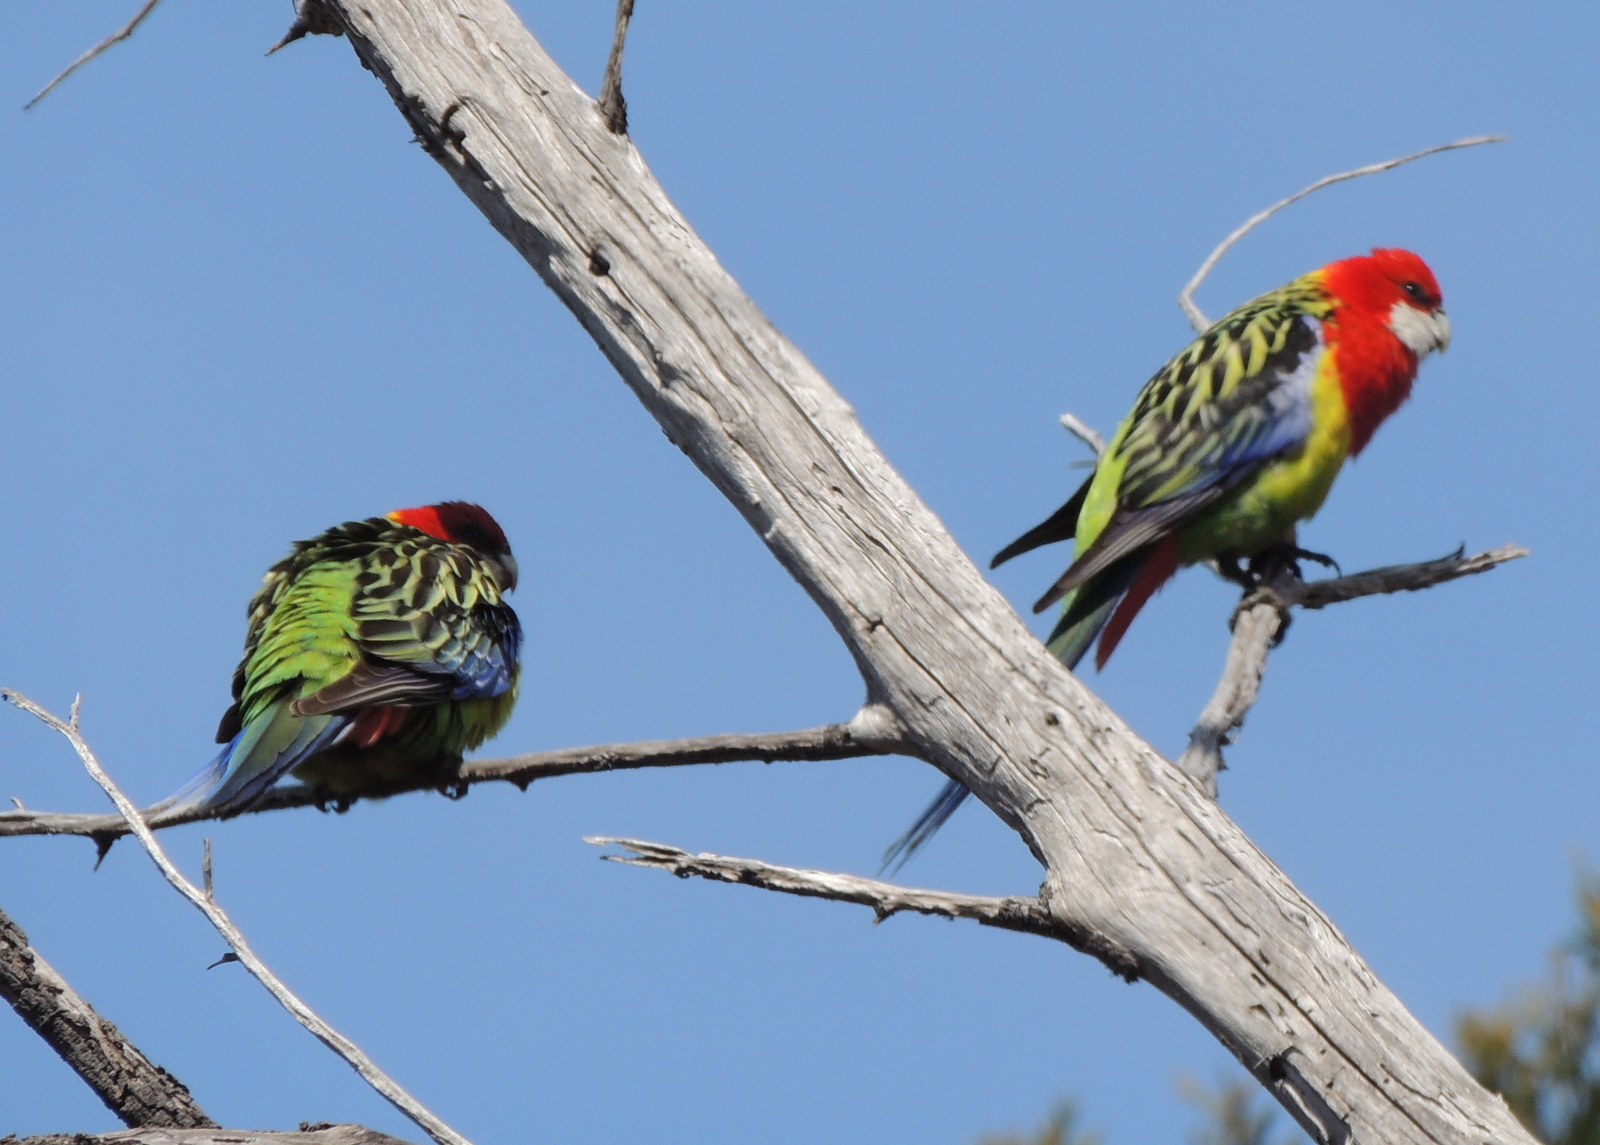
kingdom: Animalia
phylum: Chordata
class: Aves
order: Psittaciformes
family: Psittacidae
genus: Platycercus
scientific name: Platycercus eximius
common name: Eastern rosella
